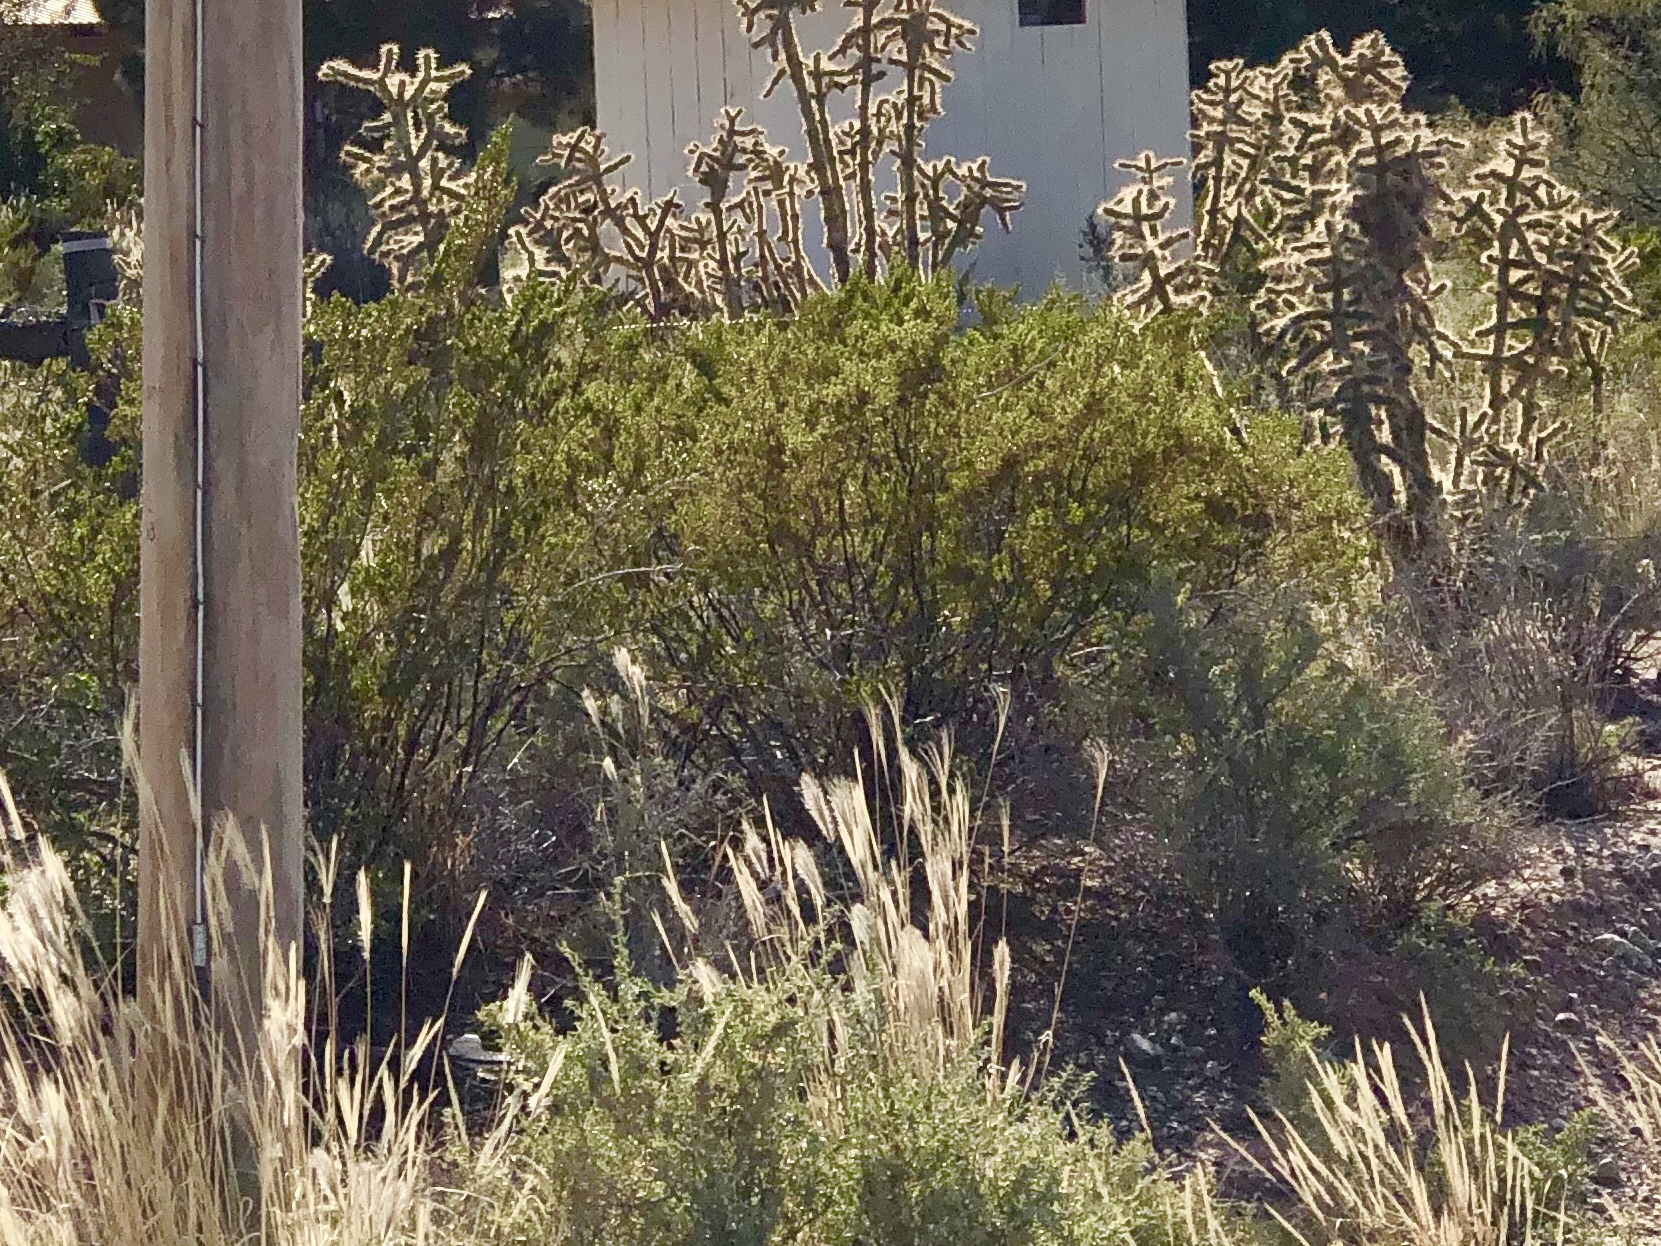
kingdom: Plantae
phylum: Tracheophyta
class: Magnoliopsida
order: Zygophyllales
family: Zygophyllaceae
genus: Larrea
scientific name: Larrea tridentata
